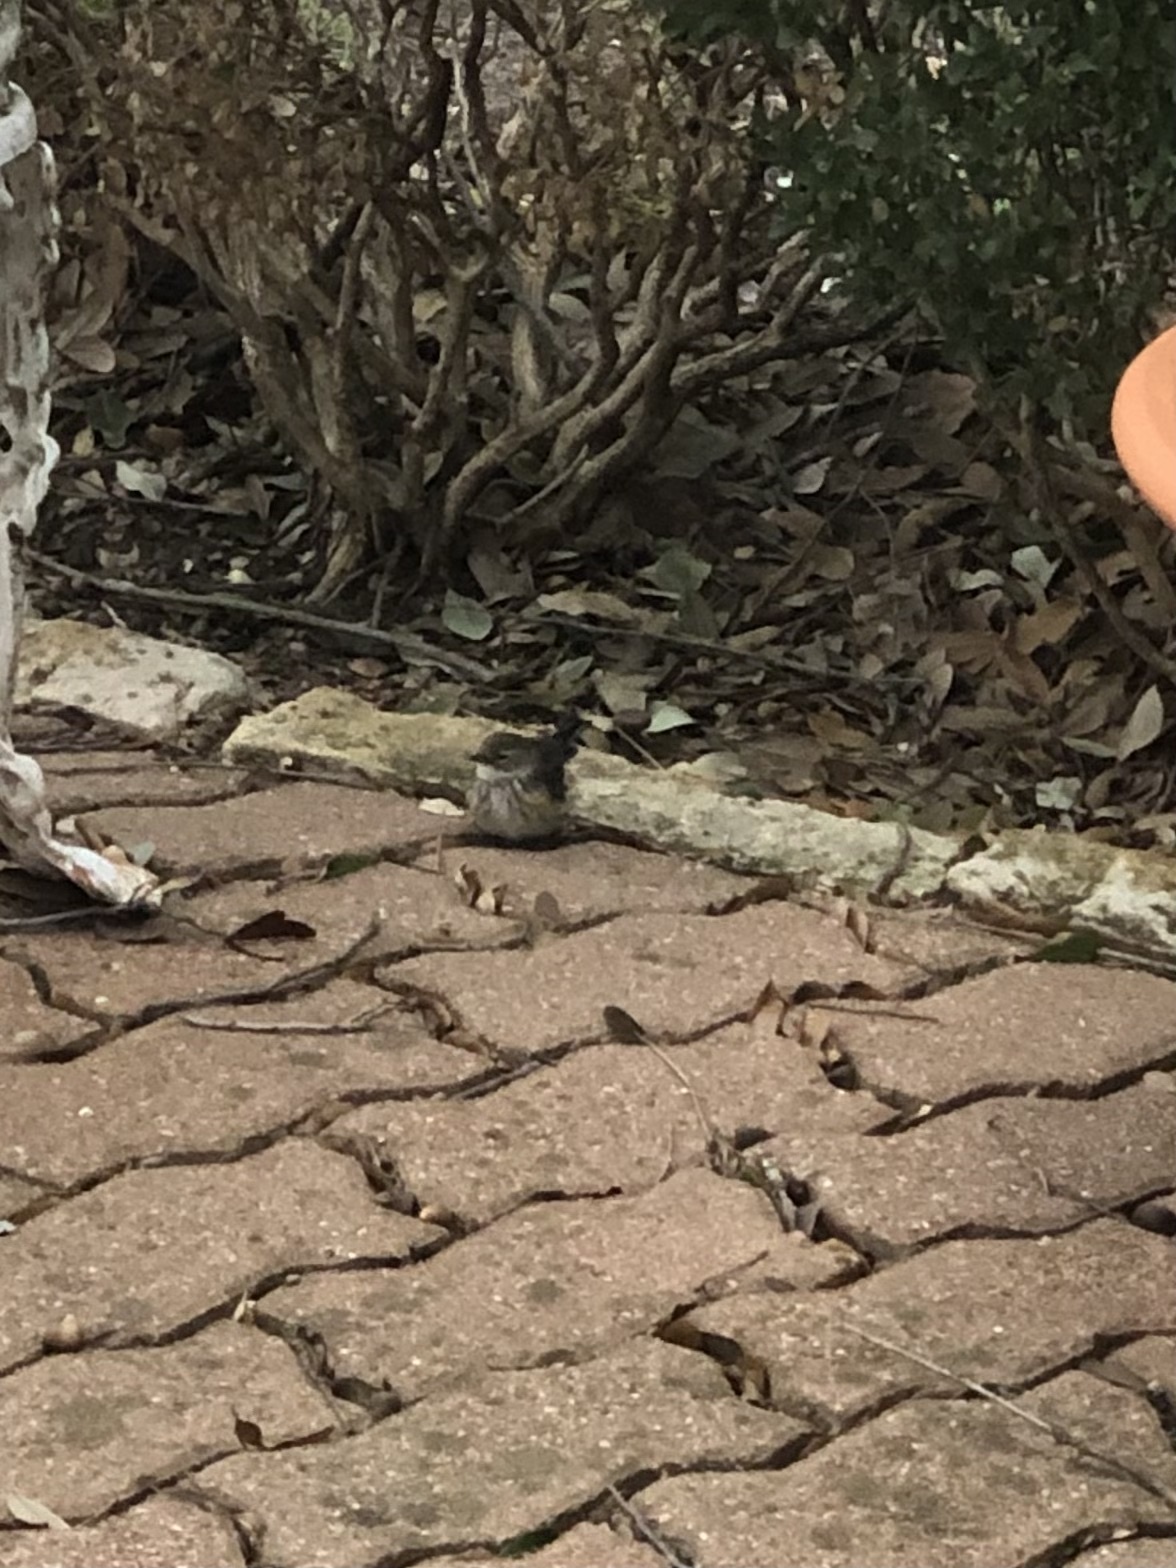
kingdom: Animalia
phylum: Chordata
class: Aves
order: Passeriformes
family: Parulidae
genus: Setophaga
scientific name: Setophaga coronata
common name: Myrtle warbler
